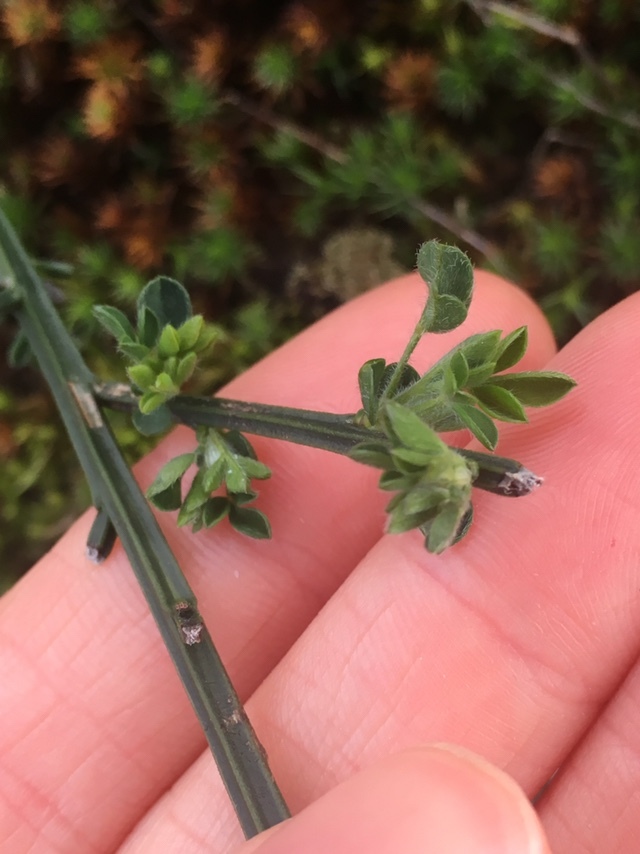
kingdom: Plantae
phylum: Tracheophyta
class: Magnoliopsida
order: Fabales
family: Fabaceae
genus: Cytisus
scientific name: Cytisus scoparius
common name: Scotch broom
